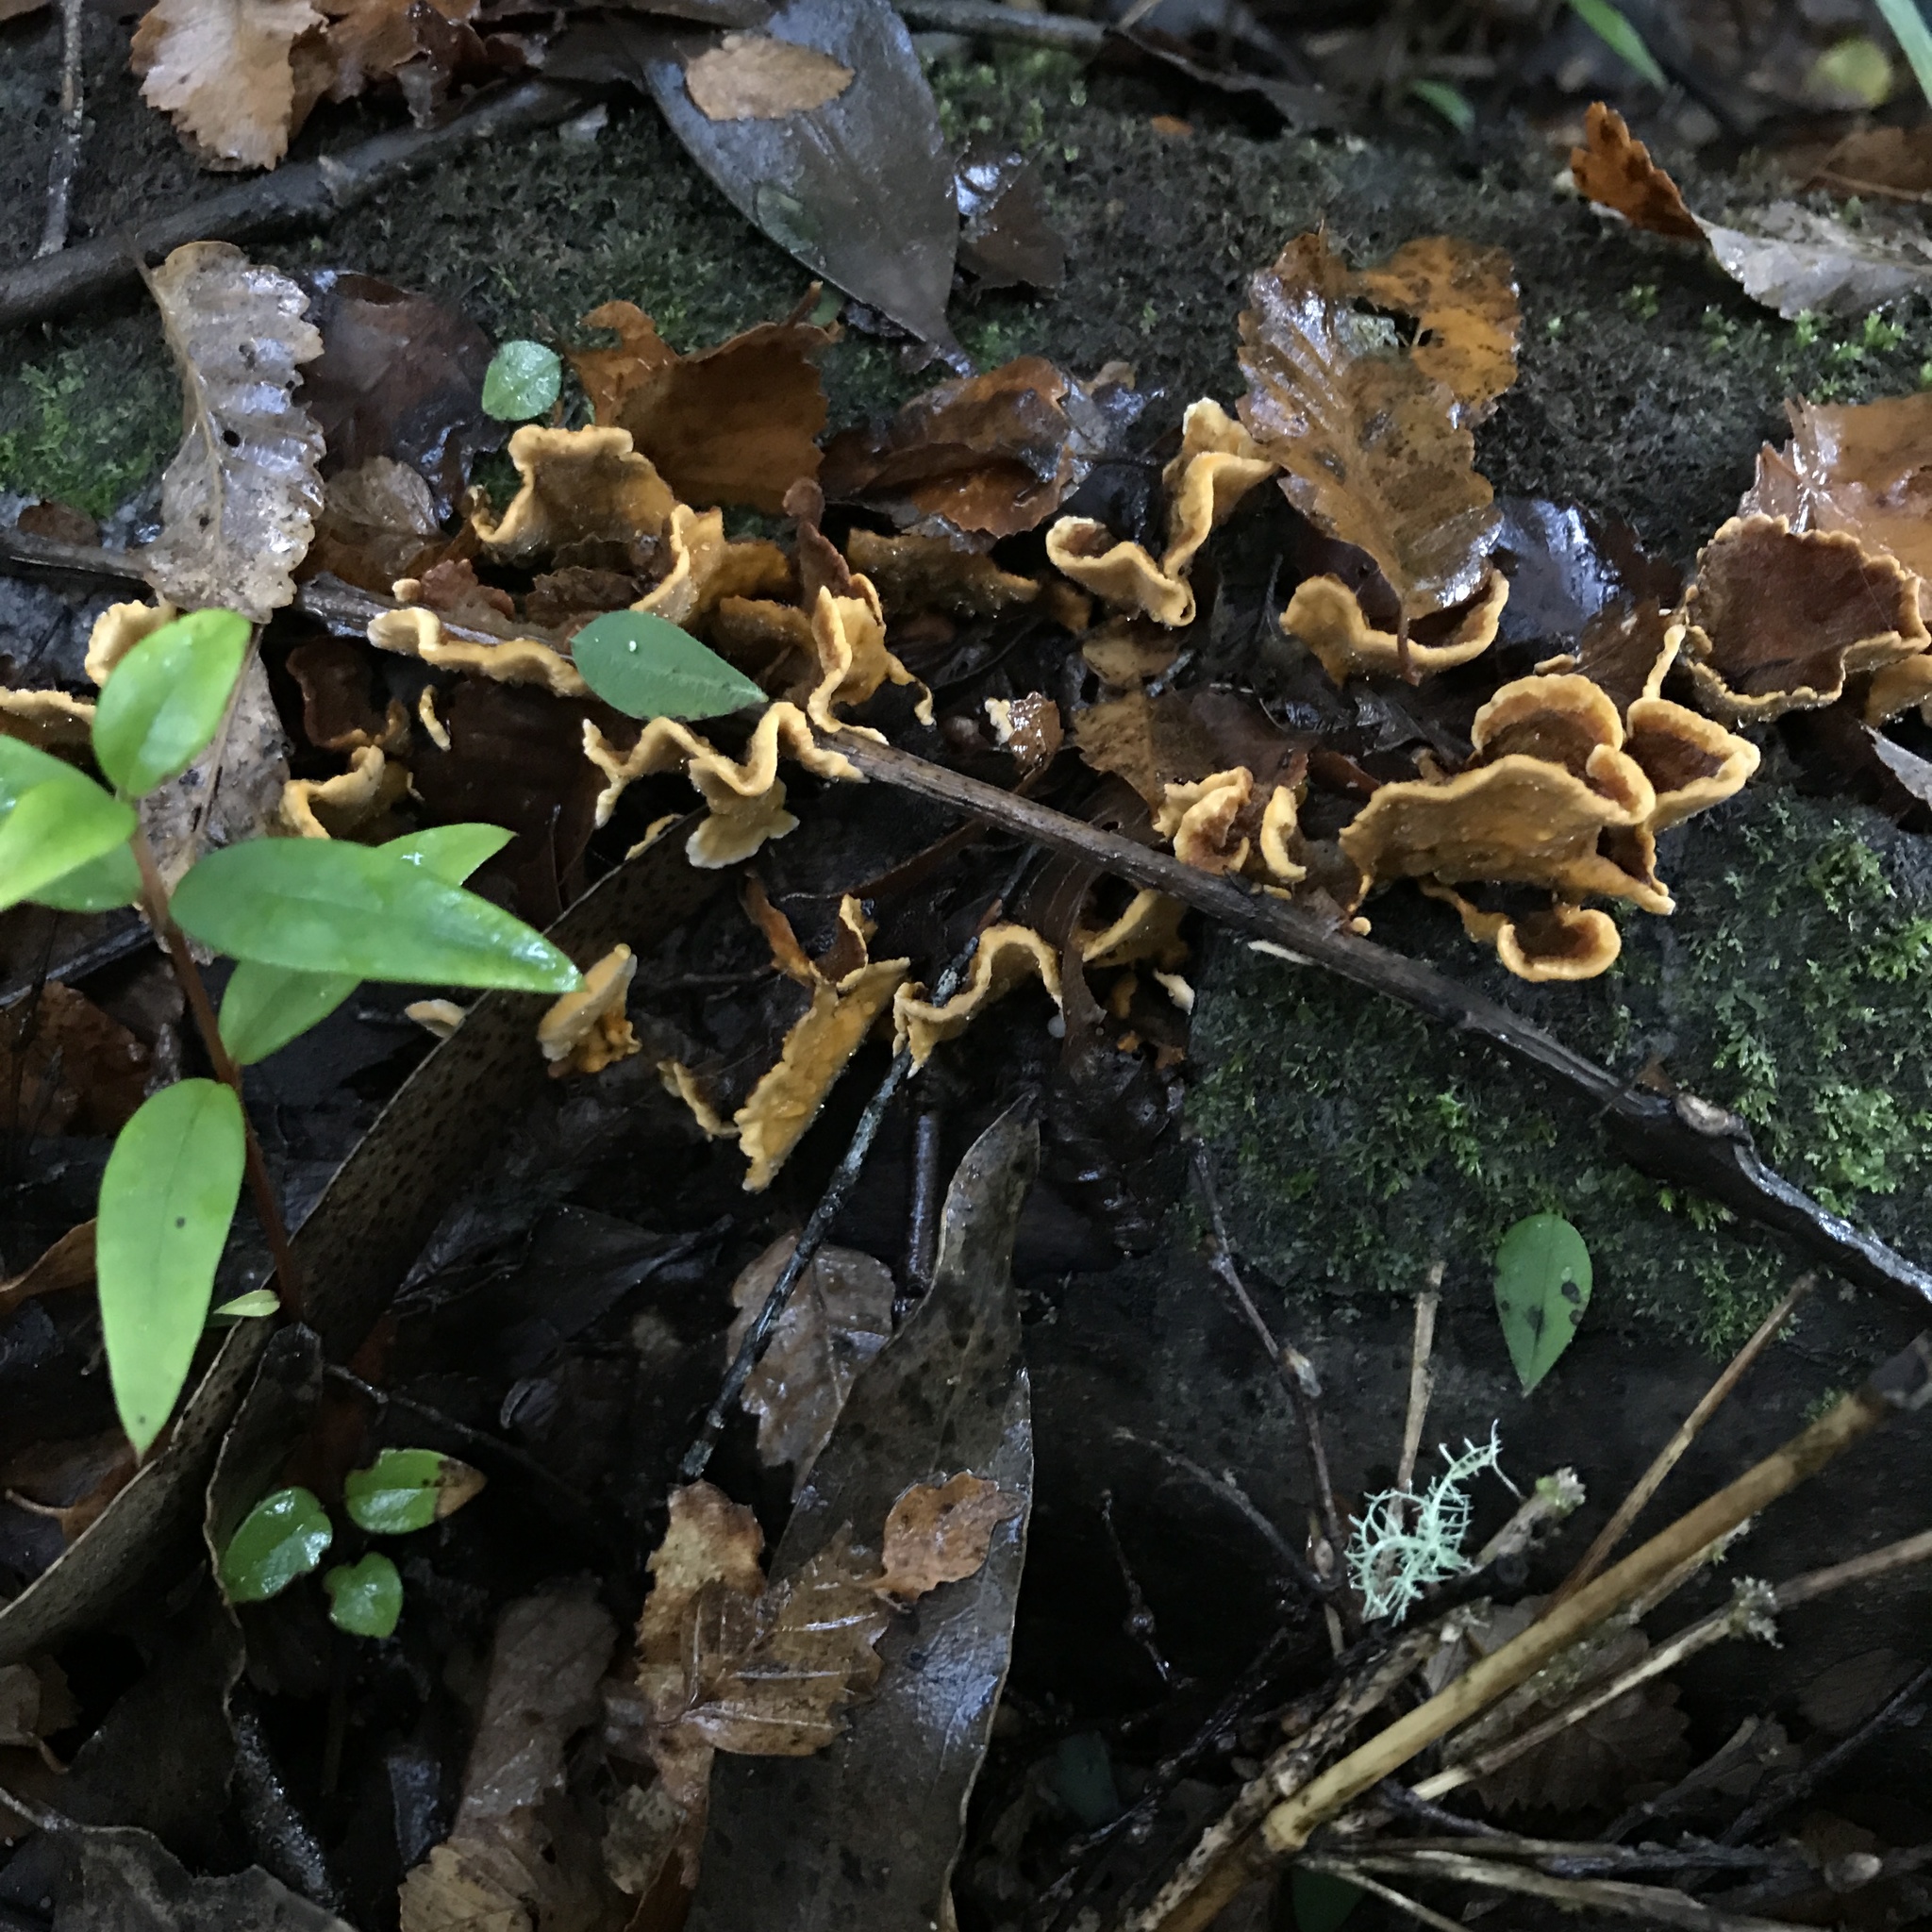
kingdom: Fungi
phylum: Basidiomycota
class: Agaricomycetes
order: Russulales
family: Stereaceae
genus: Stereum
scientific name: Stereum hirsutum
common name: Hairy curtain crust
